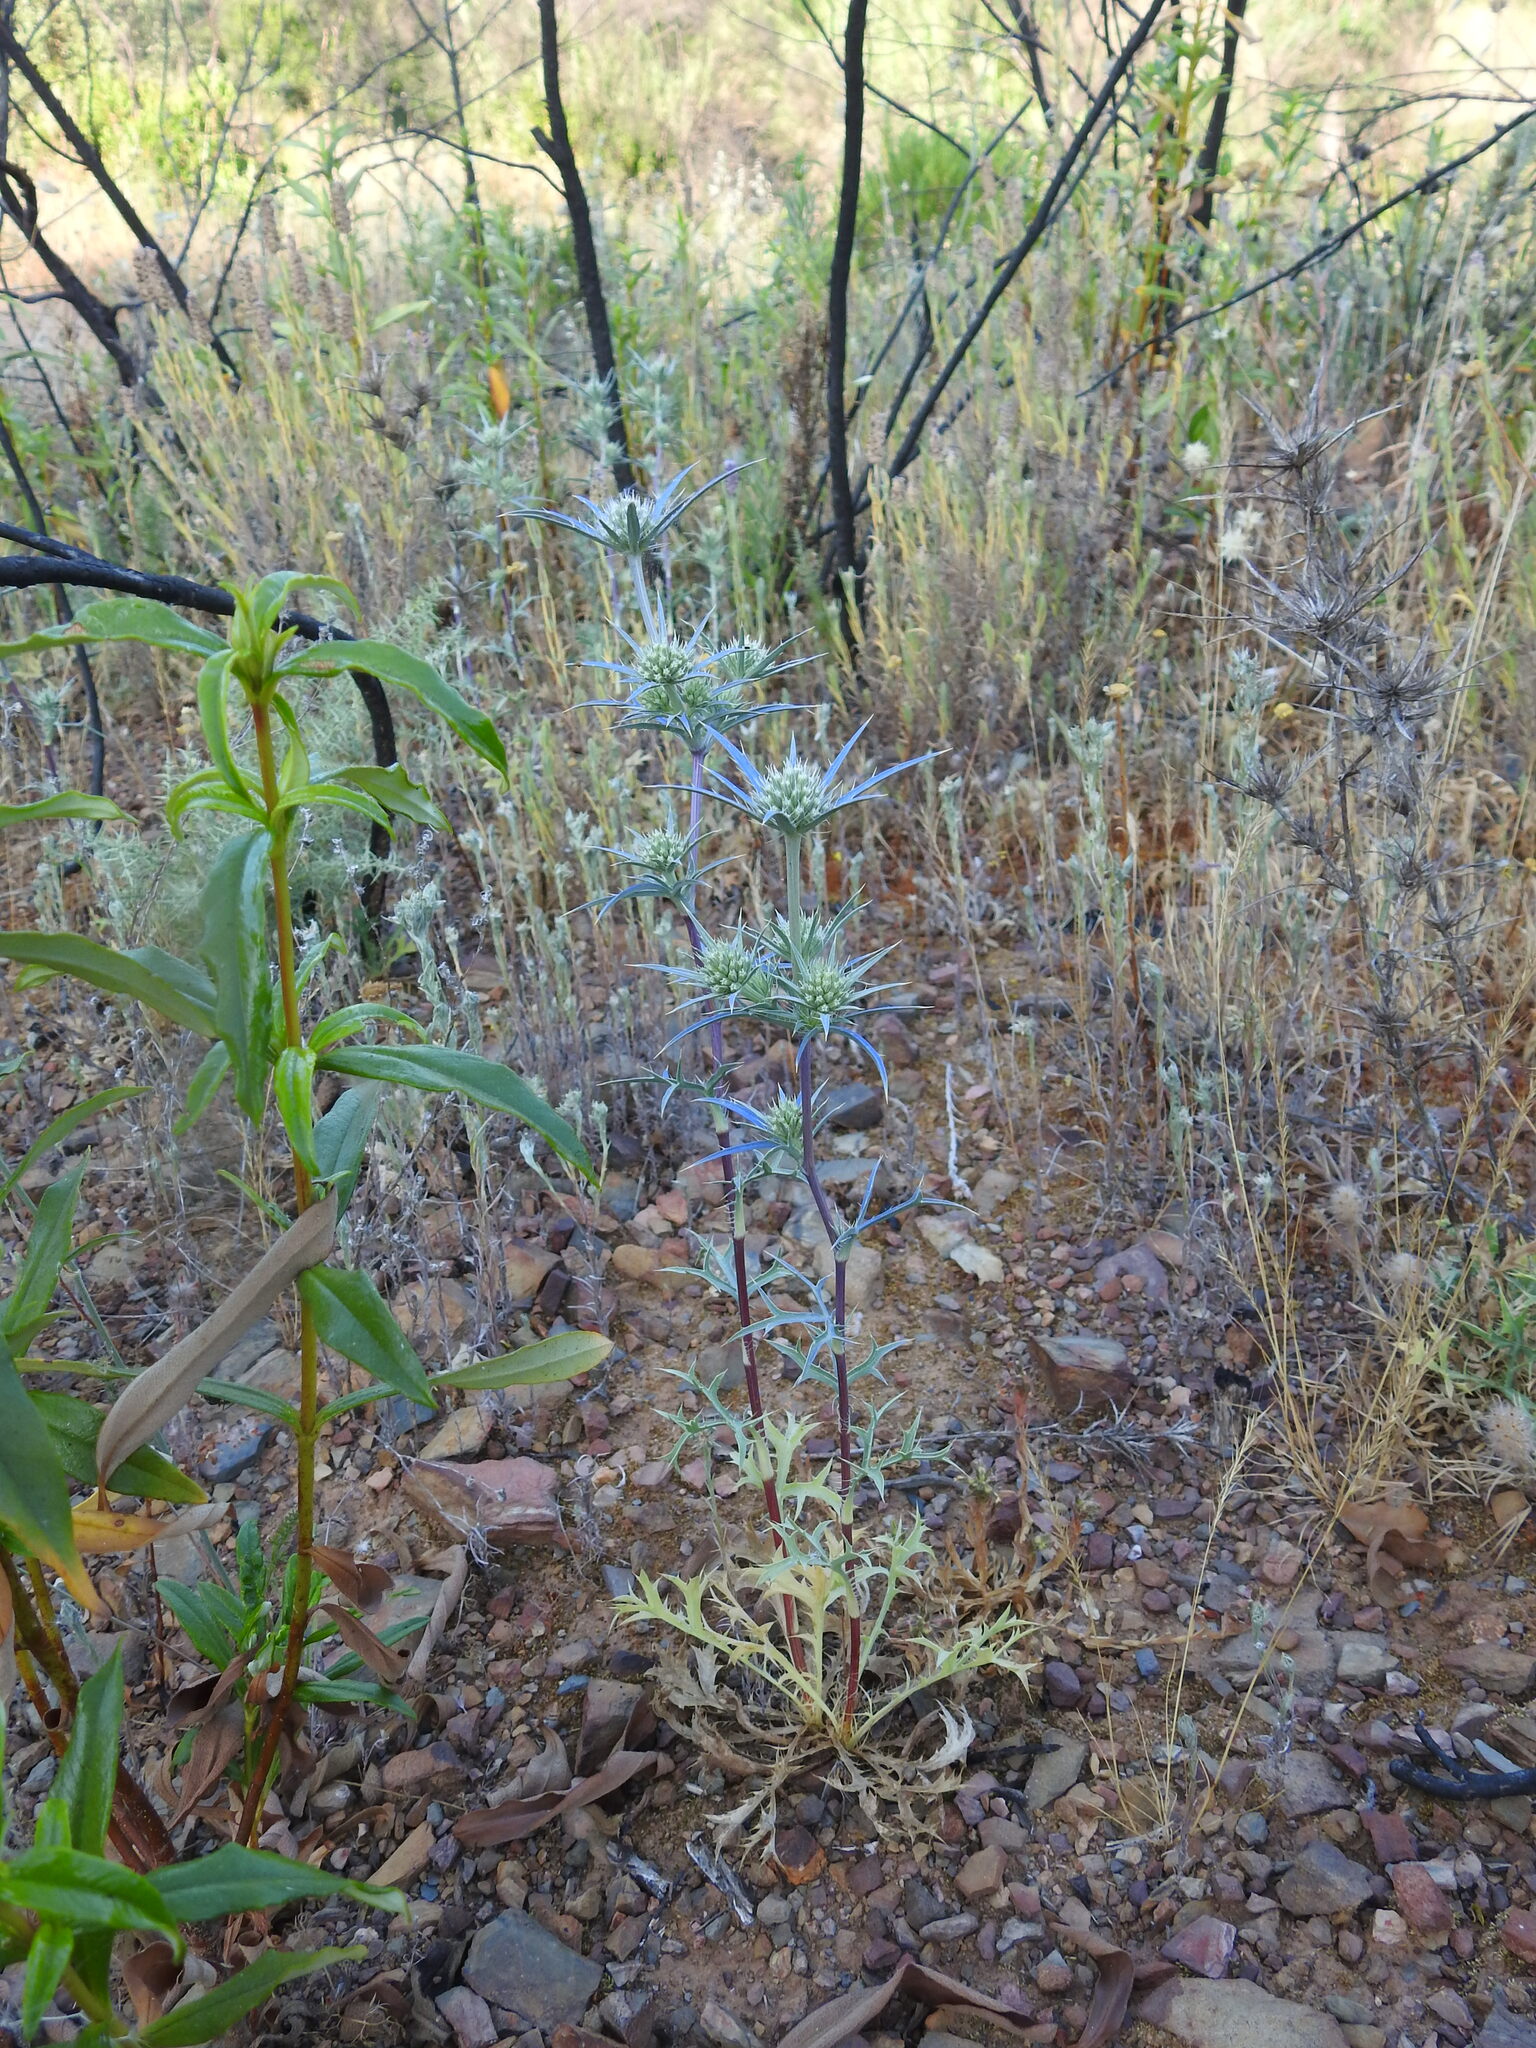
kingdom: Plantae
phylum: Tracheophyta
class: Magnoliopsida
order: Apiales
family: Apiaceae
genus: Eryngium
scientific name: Eryngium dilatatum
